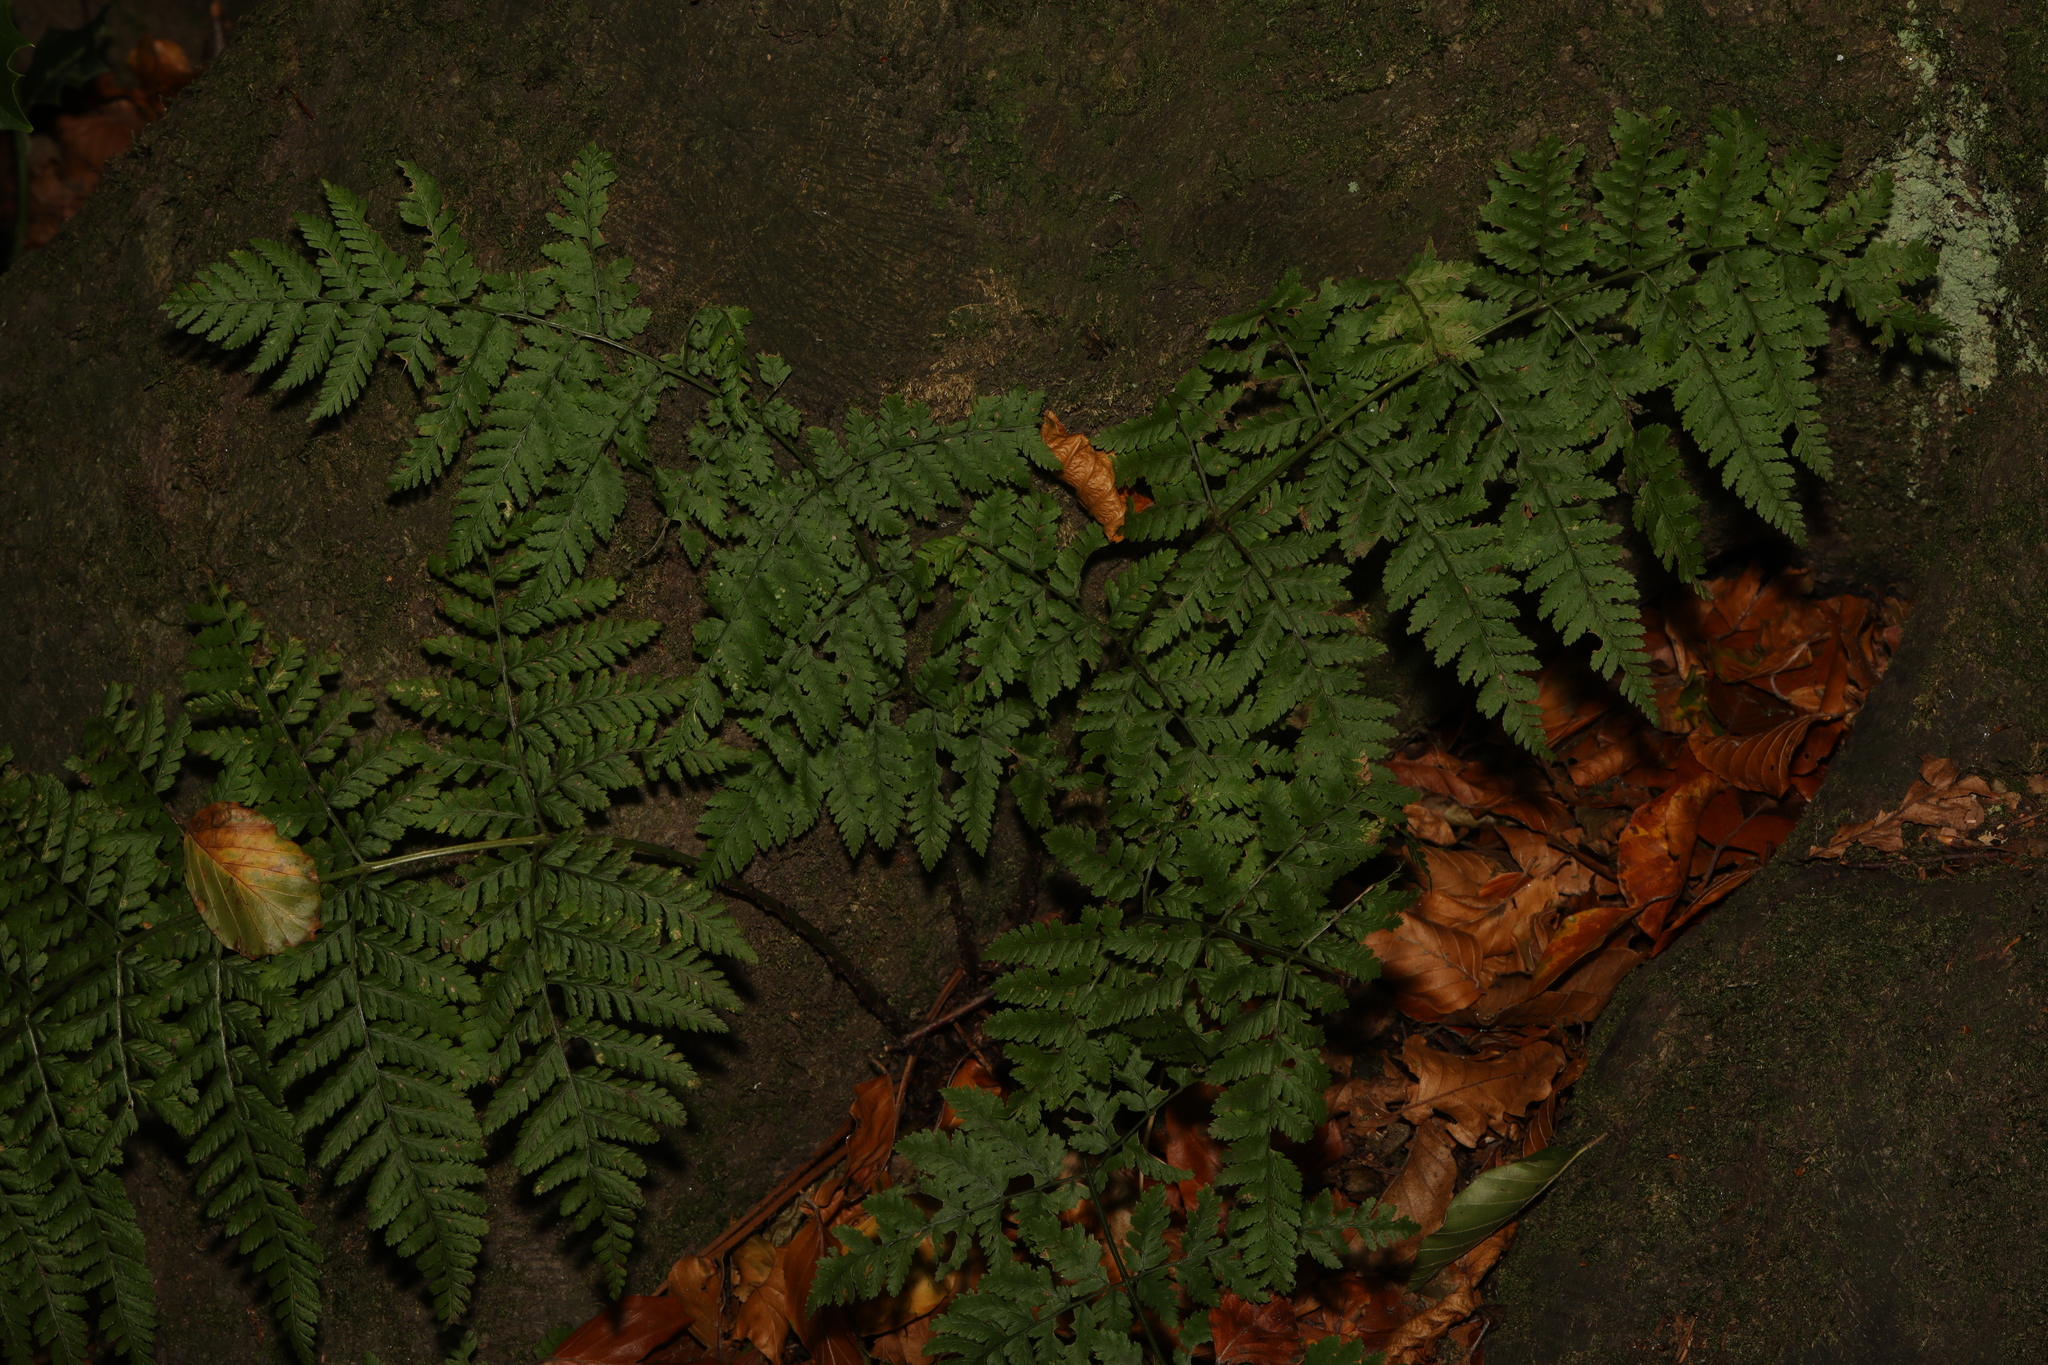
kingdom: Plantae
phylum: Tracheophyta
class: Polypodiopsida
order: Polypodiales
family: Dryopteridaceae
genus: Dryopteris
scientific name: Dryopteris dilatata
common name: Broad buckler-fern
